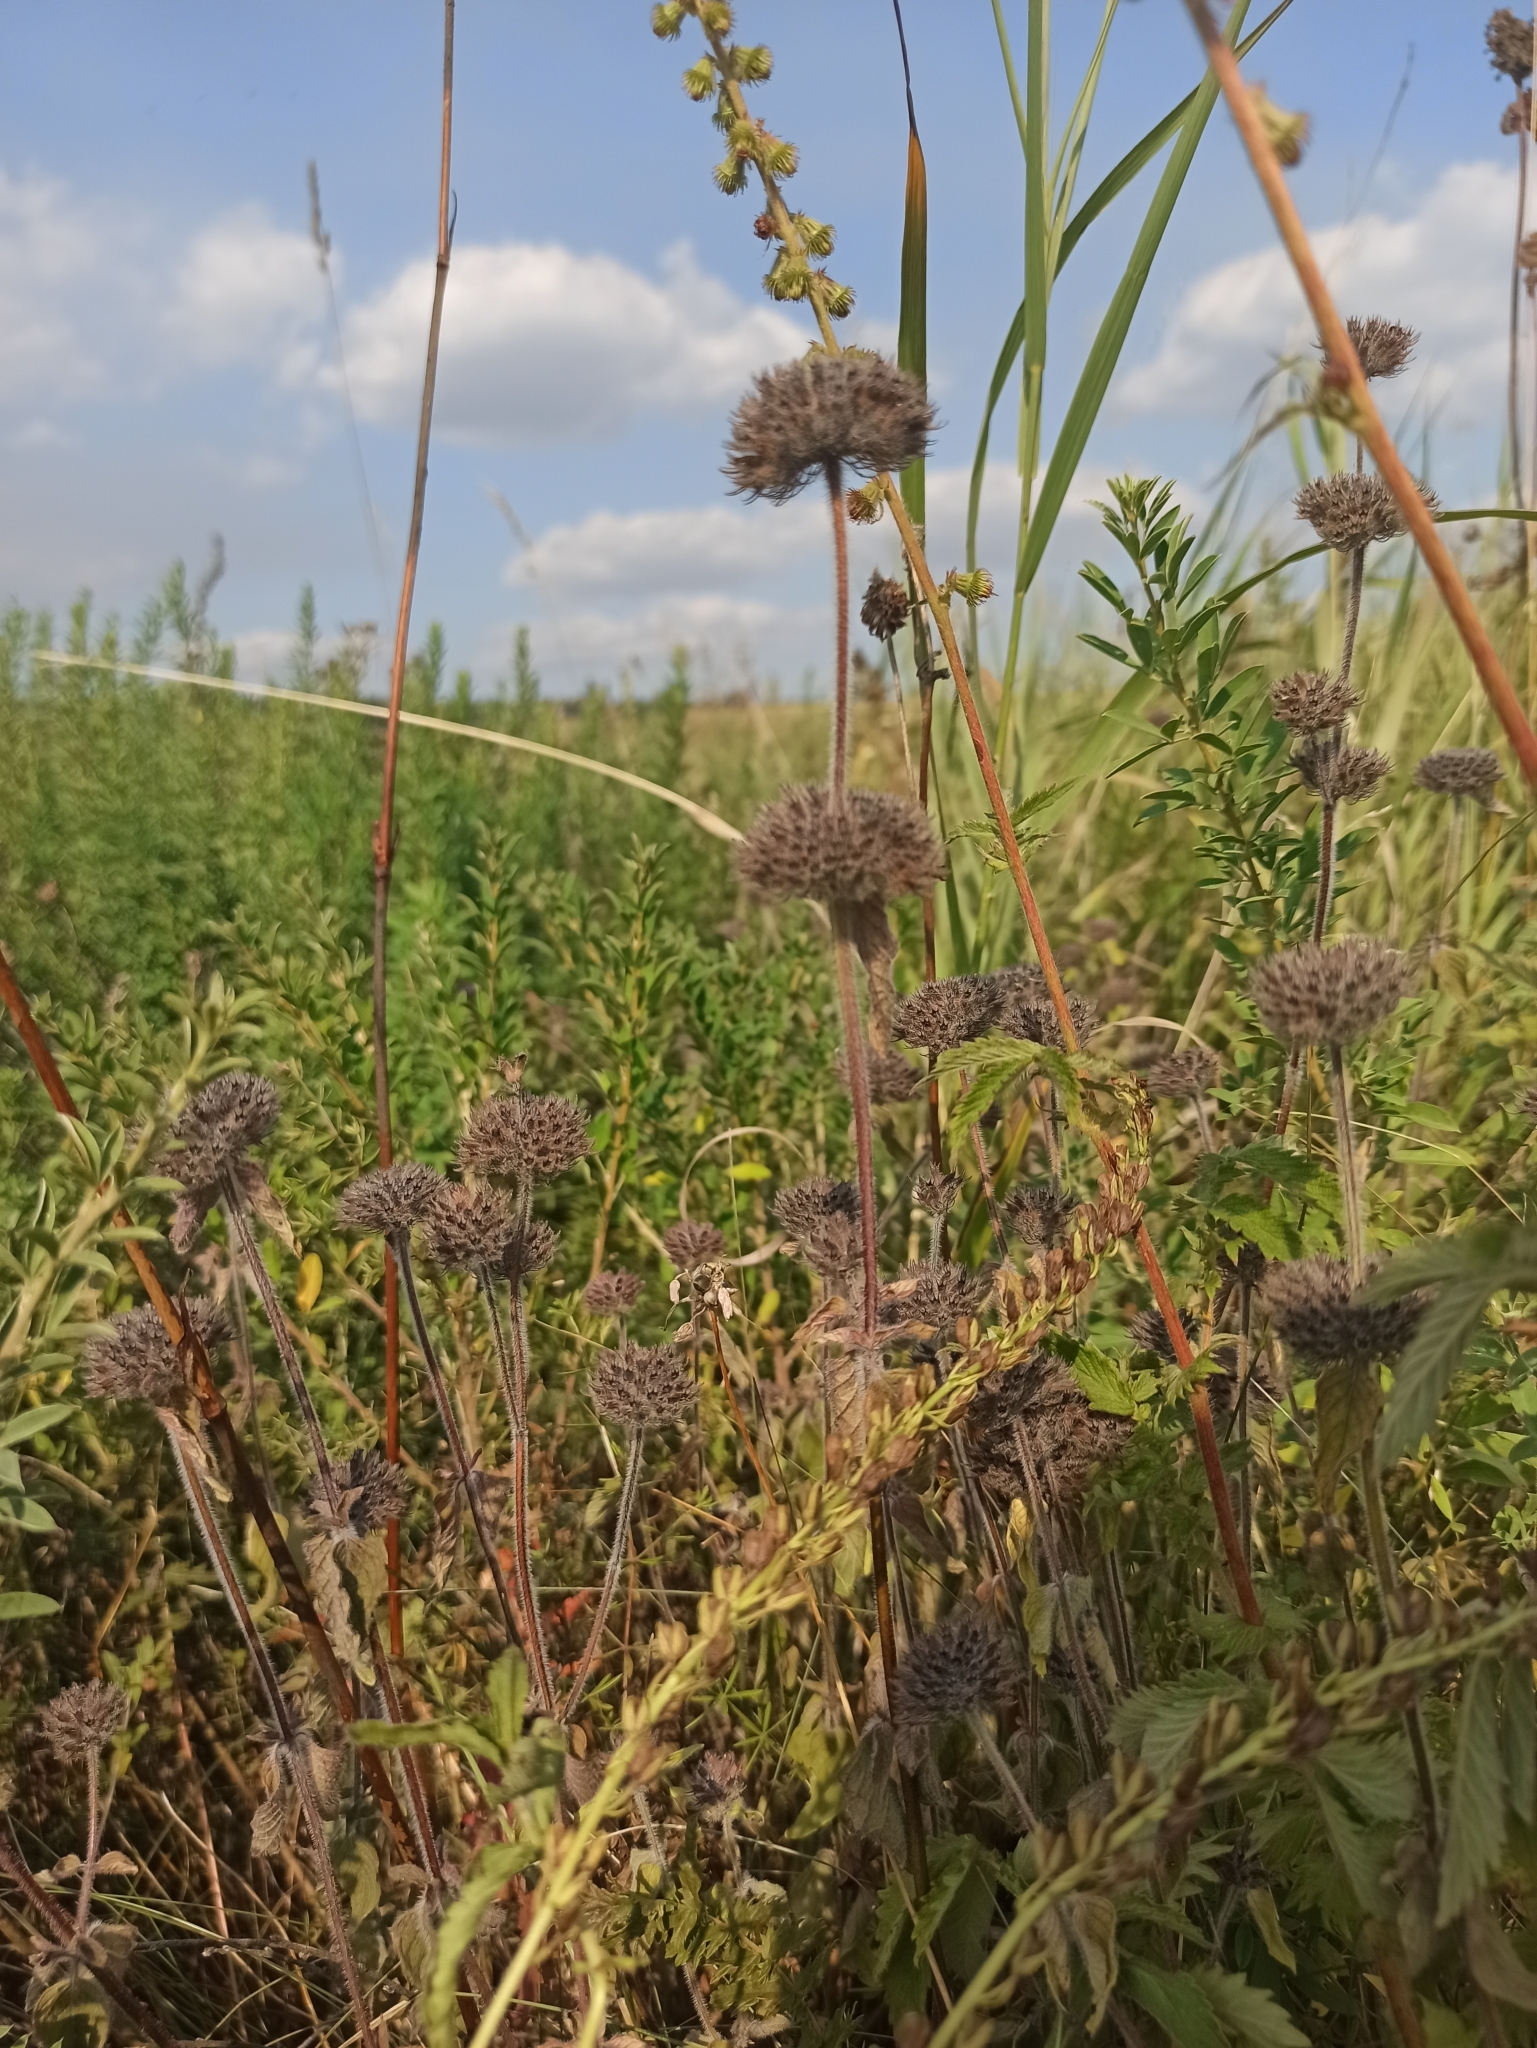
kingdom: Plantae
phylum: Tracheophyta
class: Magnoliopsida
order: Lamiales
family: Lamiaceae
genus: Clinopodium
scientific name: Clinopodium vulgare
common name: Wild basil
